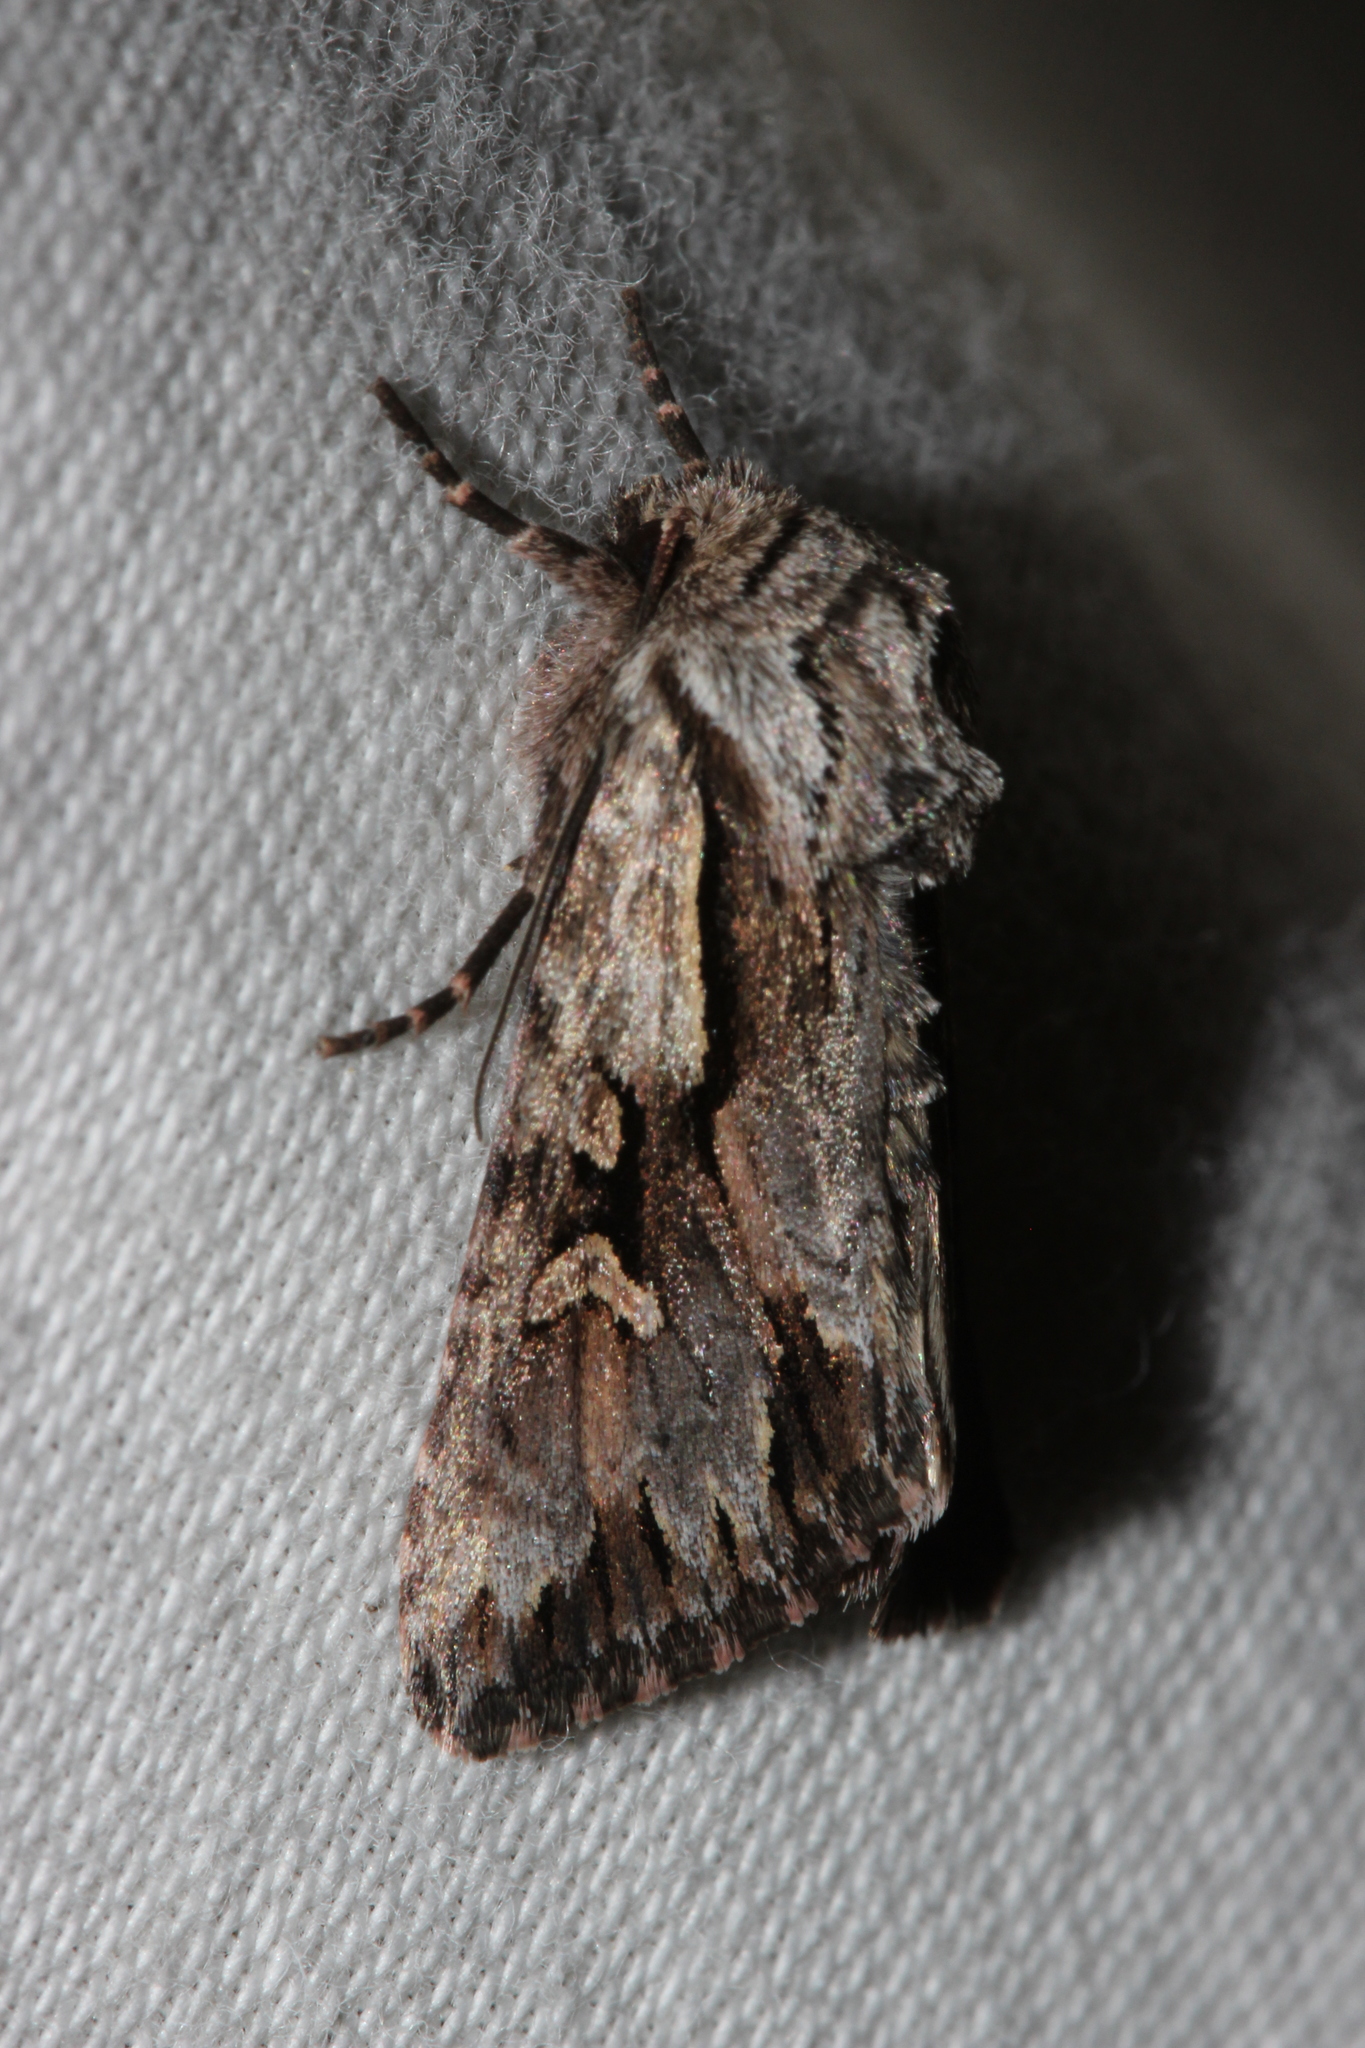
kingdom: Animalia
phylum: Arthropoda
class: Insecta
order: Lepidoptera
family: Noctuidae
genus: Chloantha
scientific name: Chloantha hyperici
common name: Pale-shouldered cloud
